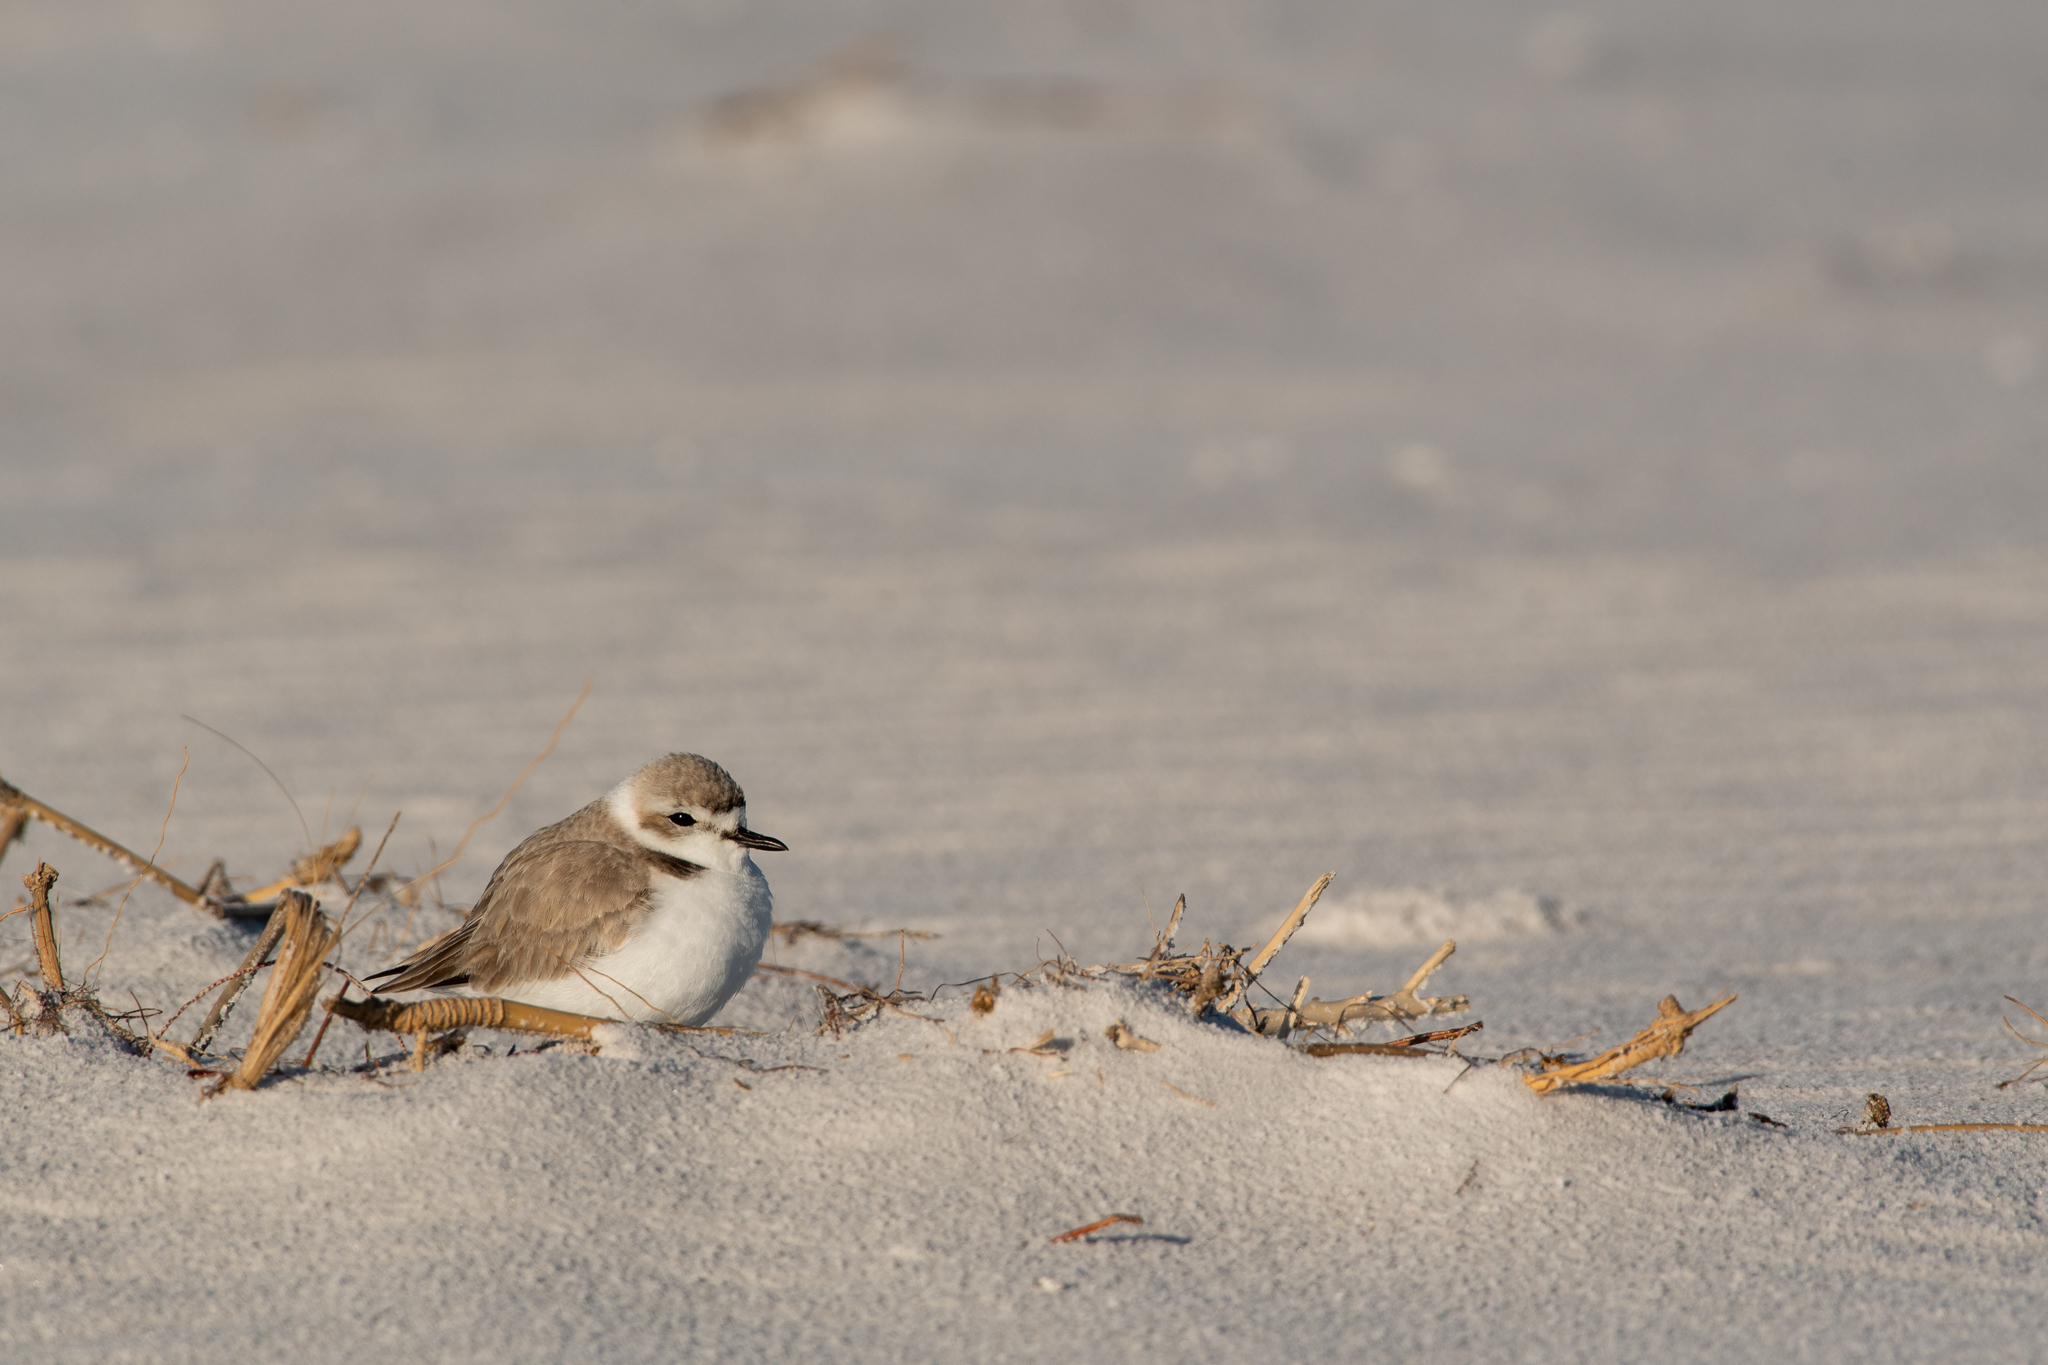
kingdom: Animalia
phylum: Chordata
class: Aves
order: Charadriiformes
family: Charadriidae
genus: Anarhynchus
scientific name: Anarhynchus
